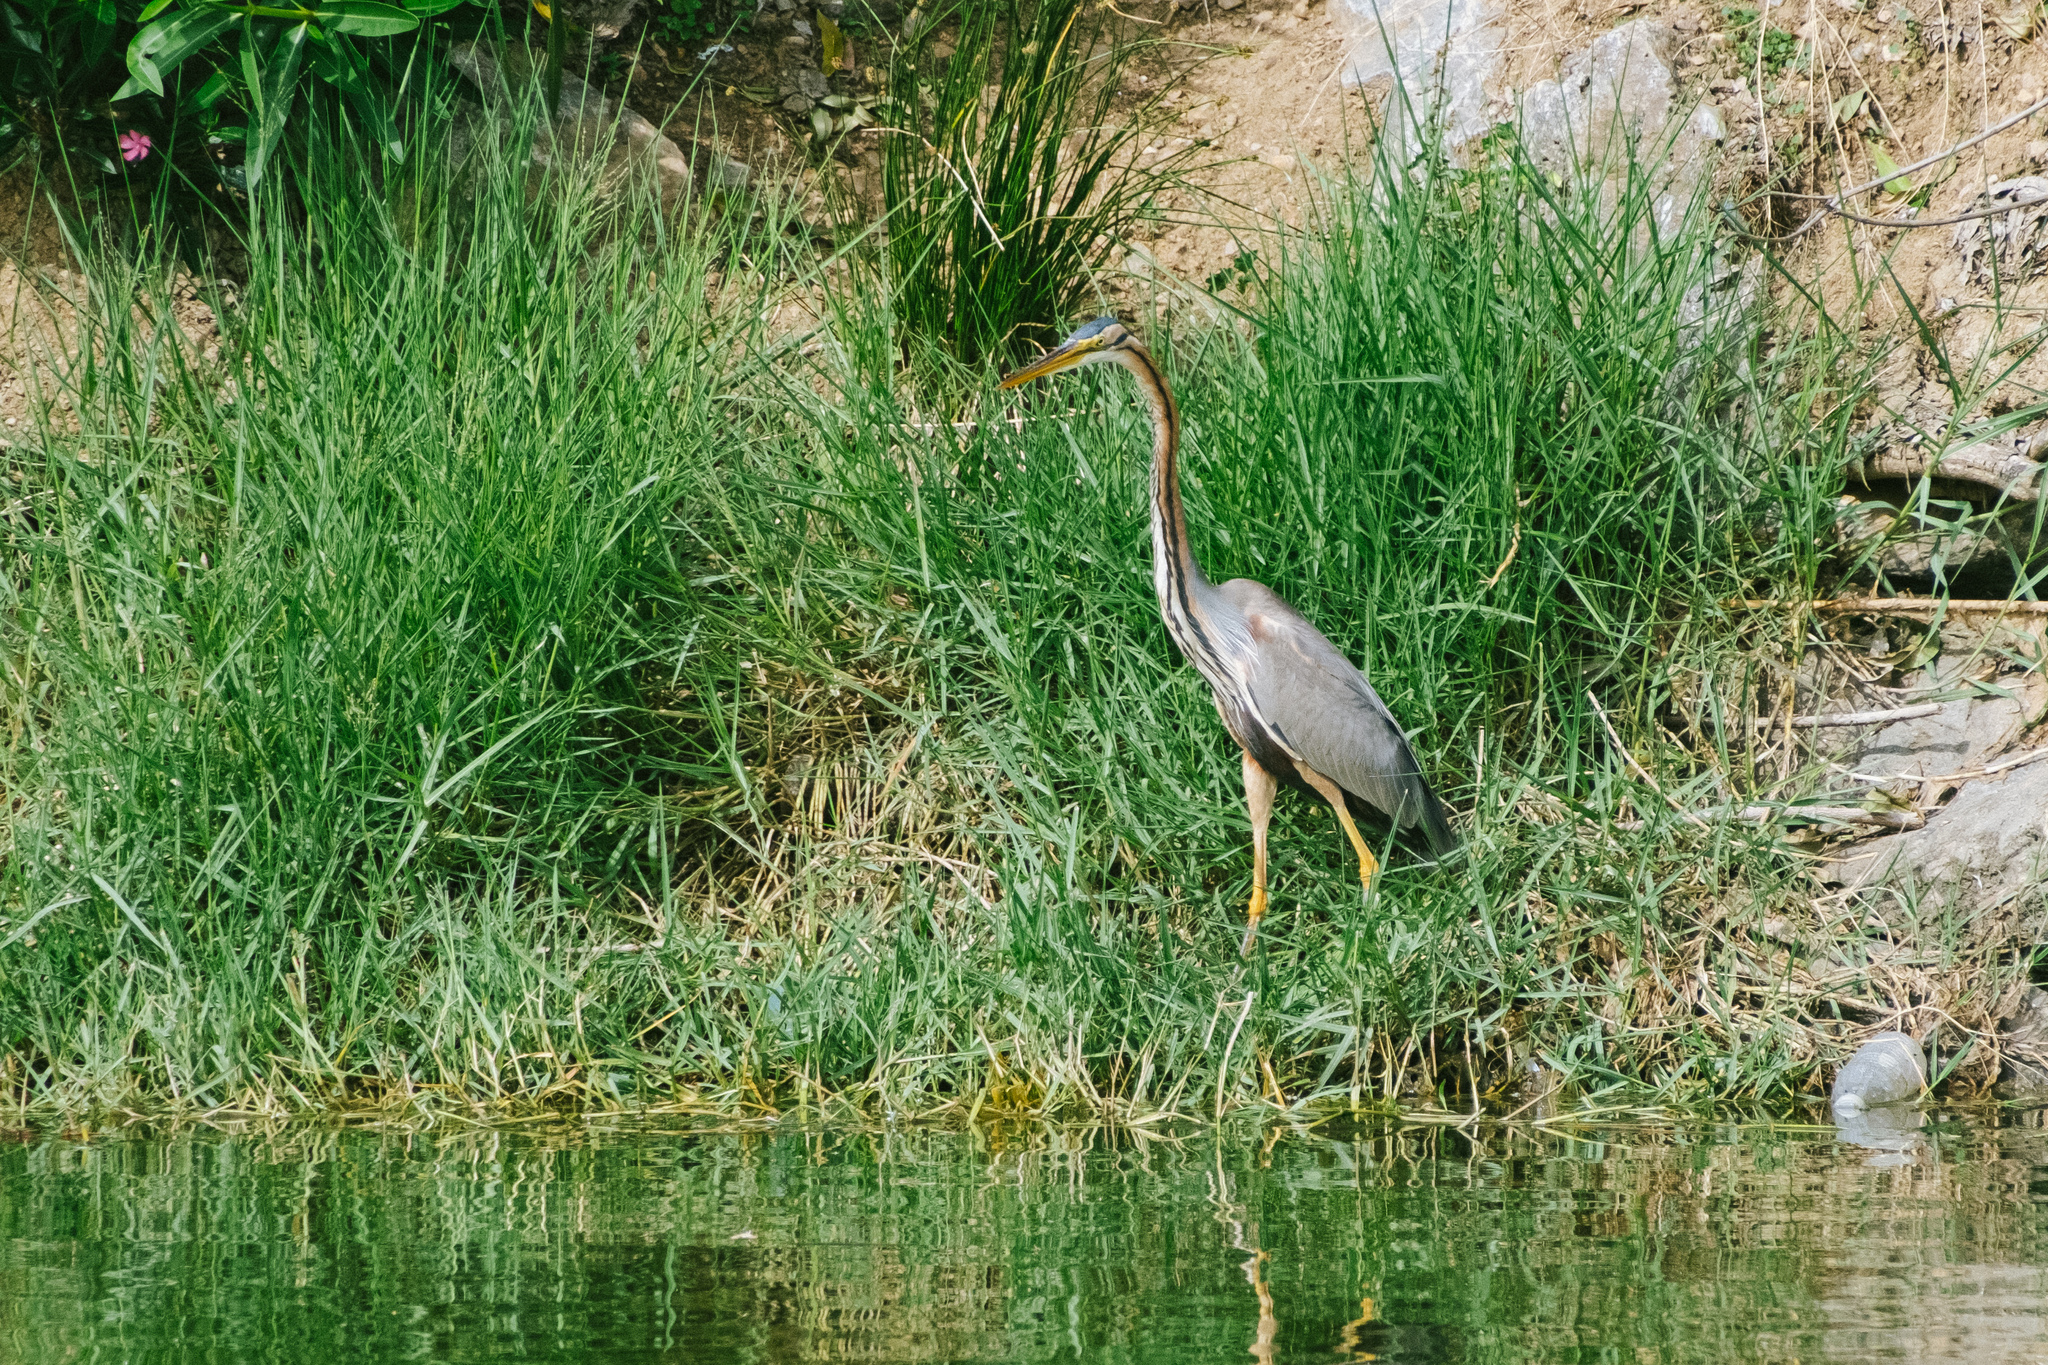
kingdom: Animalia
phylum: Chordata
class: Aves
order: Pelecaniformes
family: Ardeidae
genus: Ardea
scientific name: Ardea purpurea
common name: Purple heron
